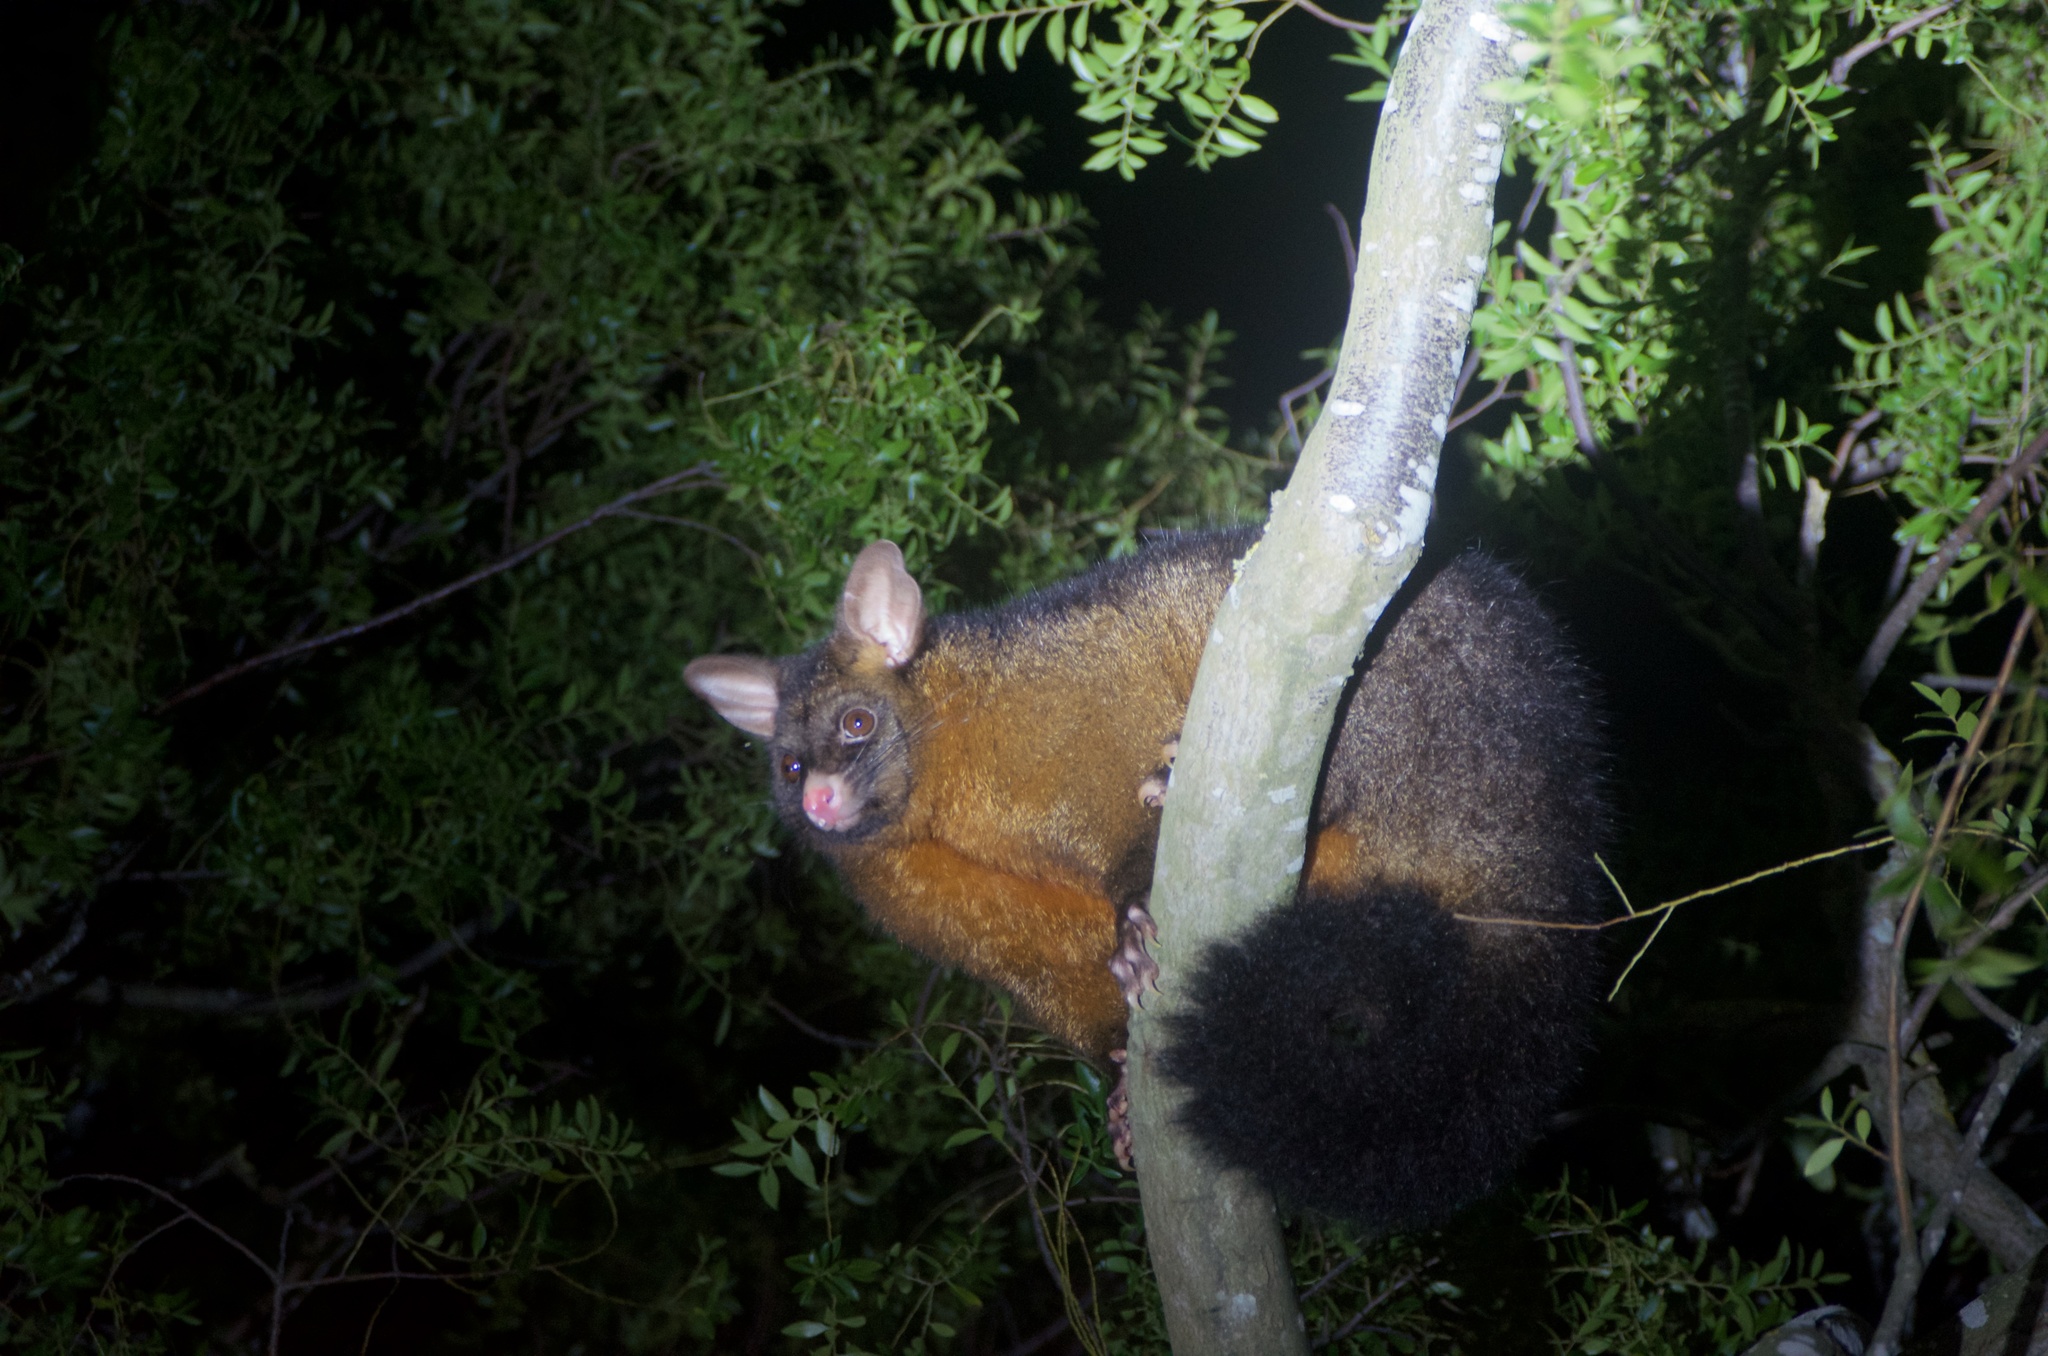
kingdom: Animalia
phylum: Chordata
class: Mammalia
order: Diprotodontia
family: Phalangeridae
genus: Trichosurus
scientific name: Trichosurus vulpecula
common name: Common brushtail
